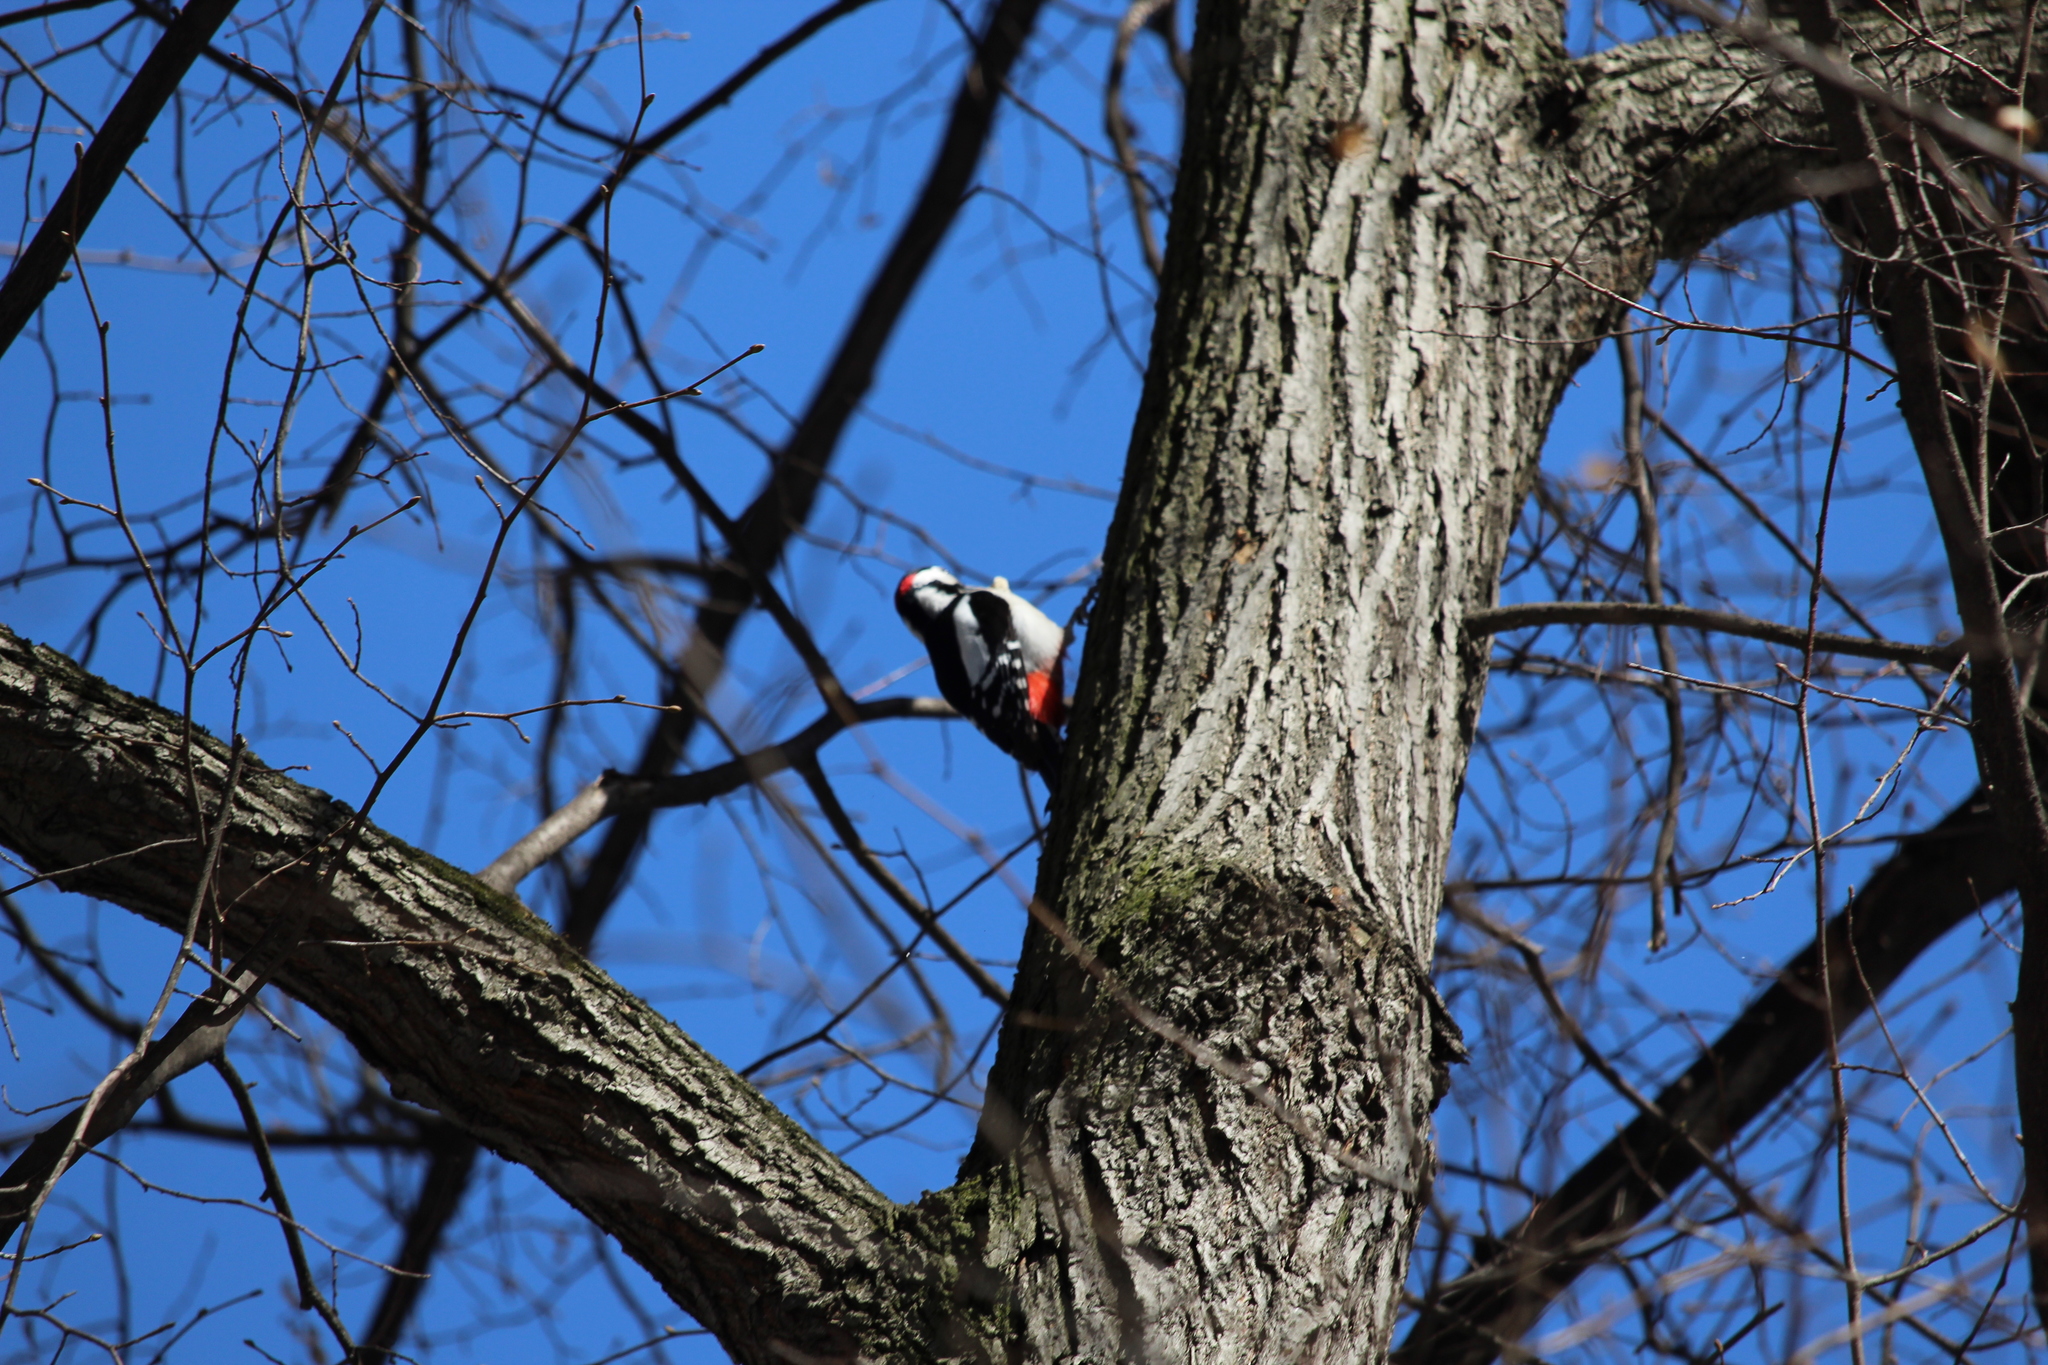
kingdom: Animalia
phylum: Chordata
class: Aves
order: Piciformes
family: Picidae
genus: Dendrocopos
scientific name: Dendrocopos major
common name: Great spotted woodpecker
